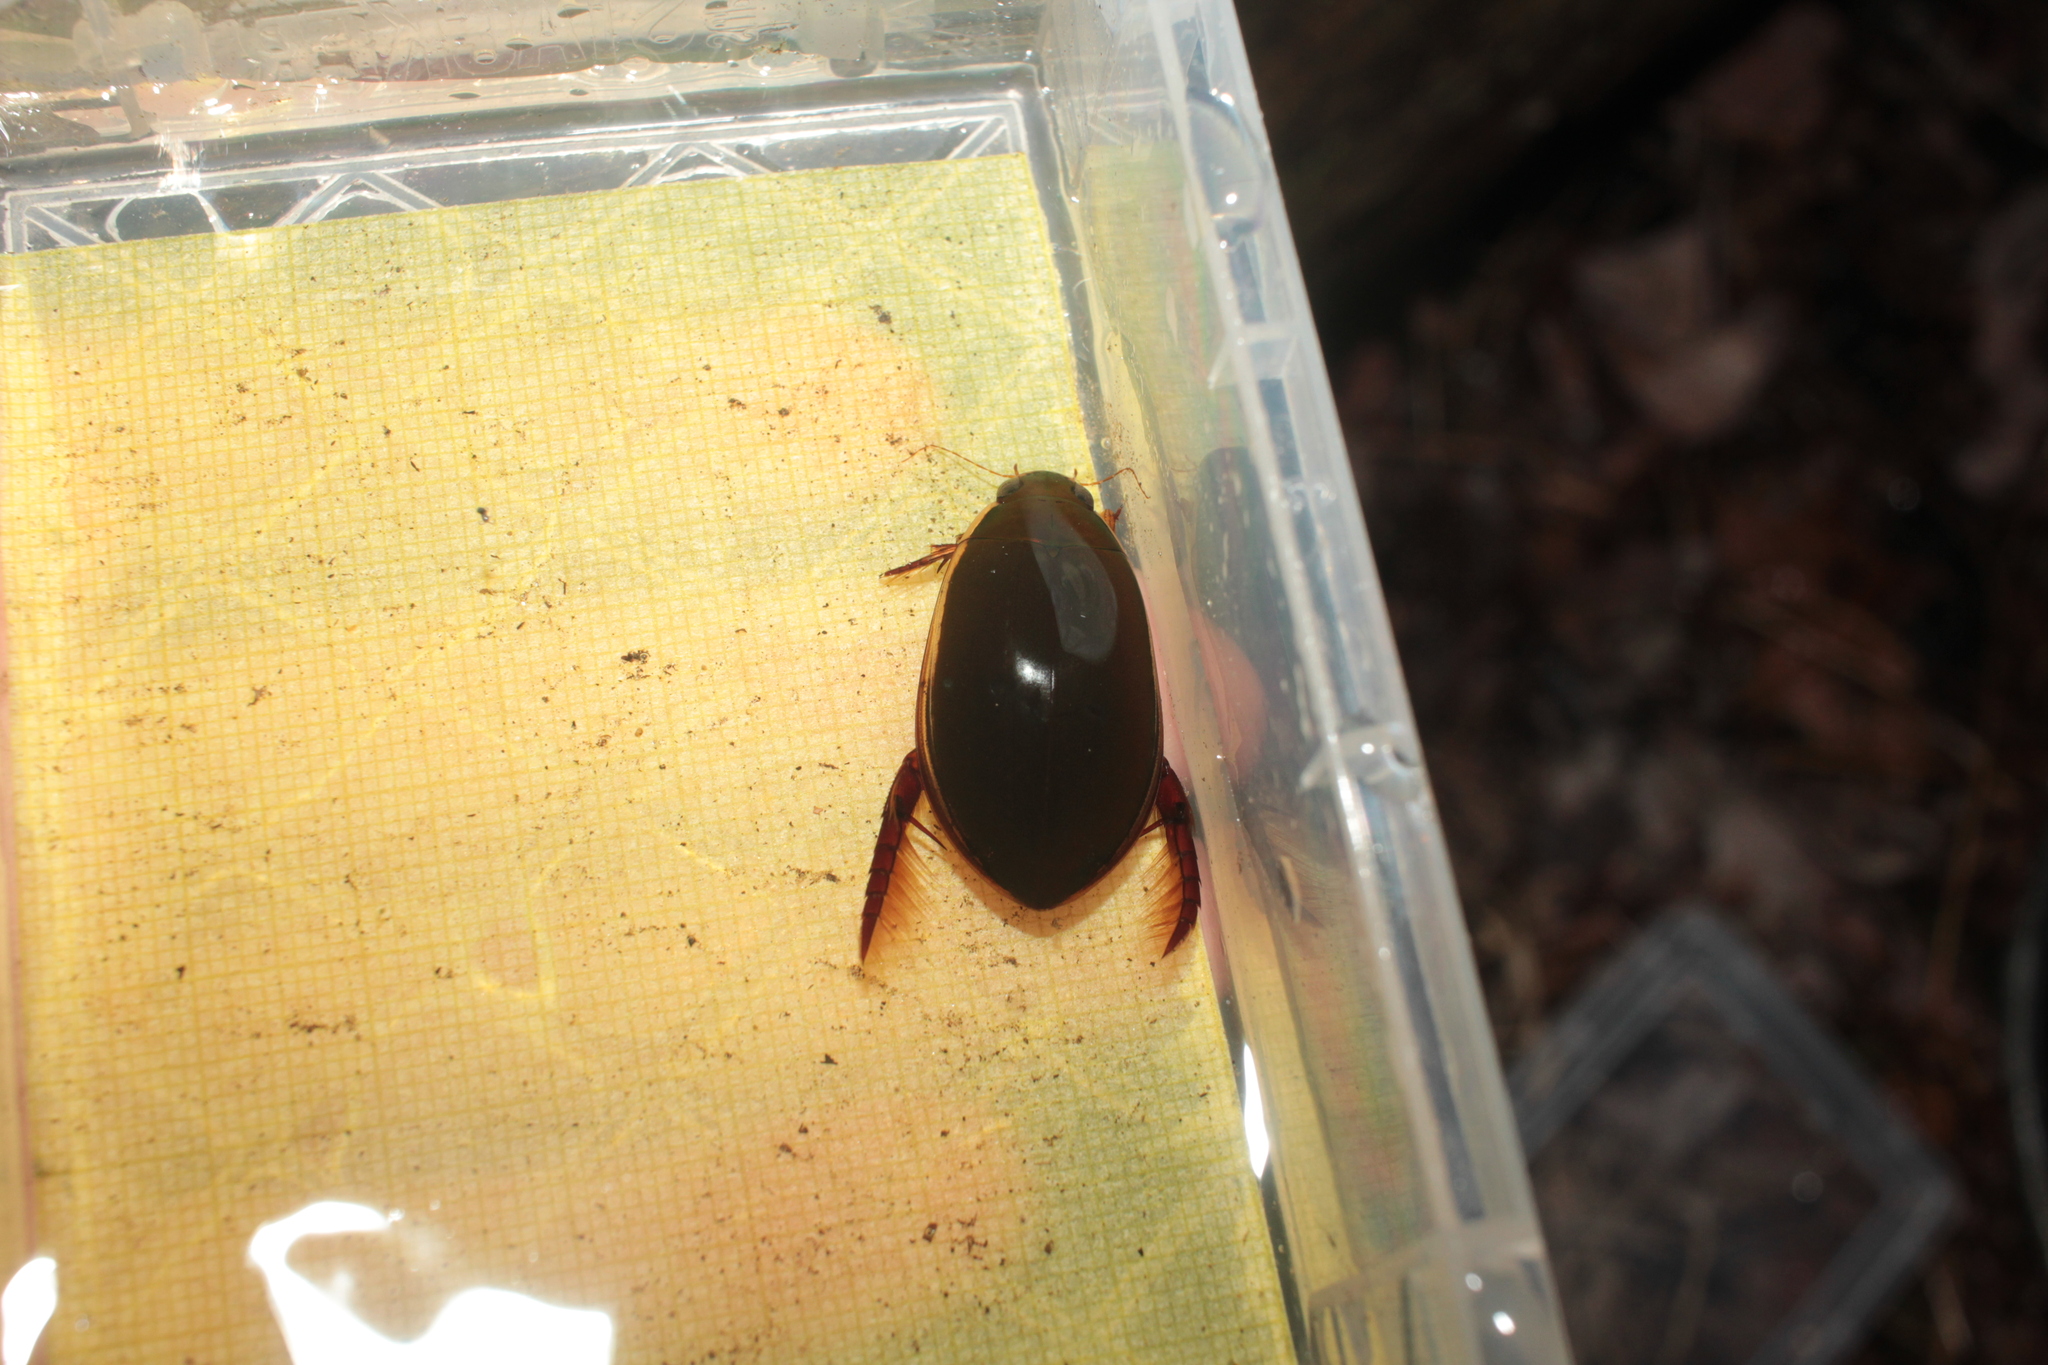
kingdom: Animalia
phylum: Arthropoda
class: Insecta
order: Coleoptera
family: Dytiscidae
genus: Cybister
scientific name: Cybister fimbriolatus
